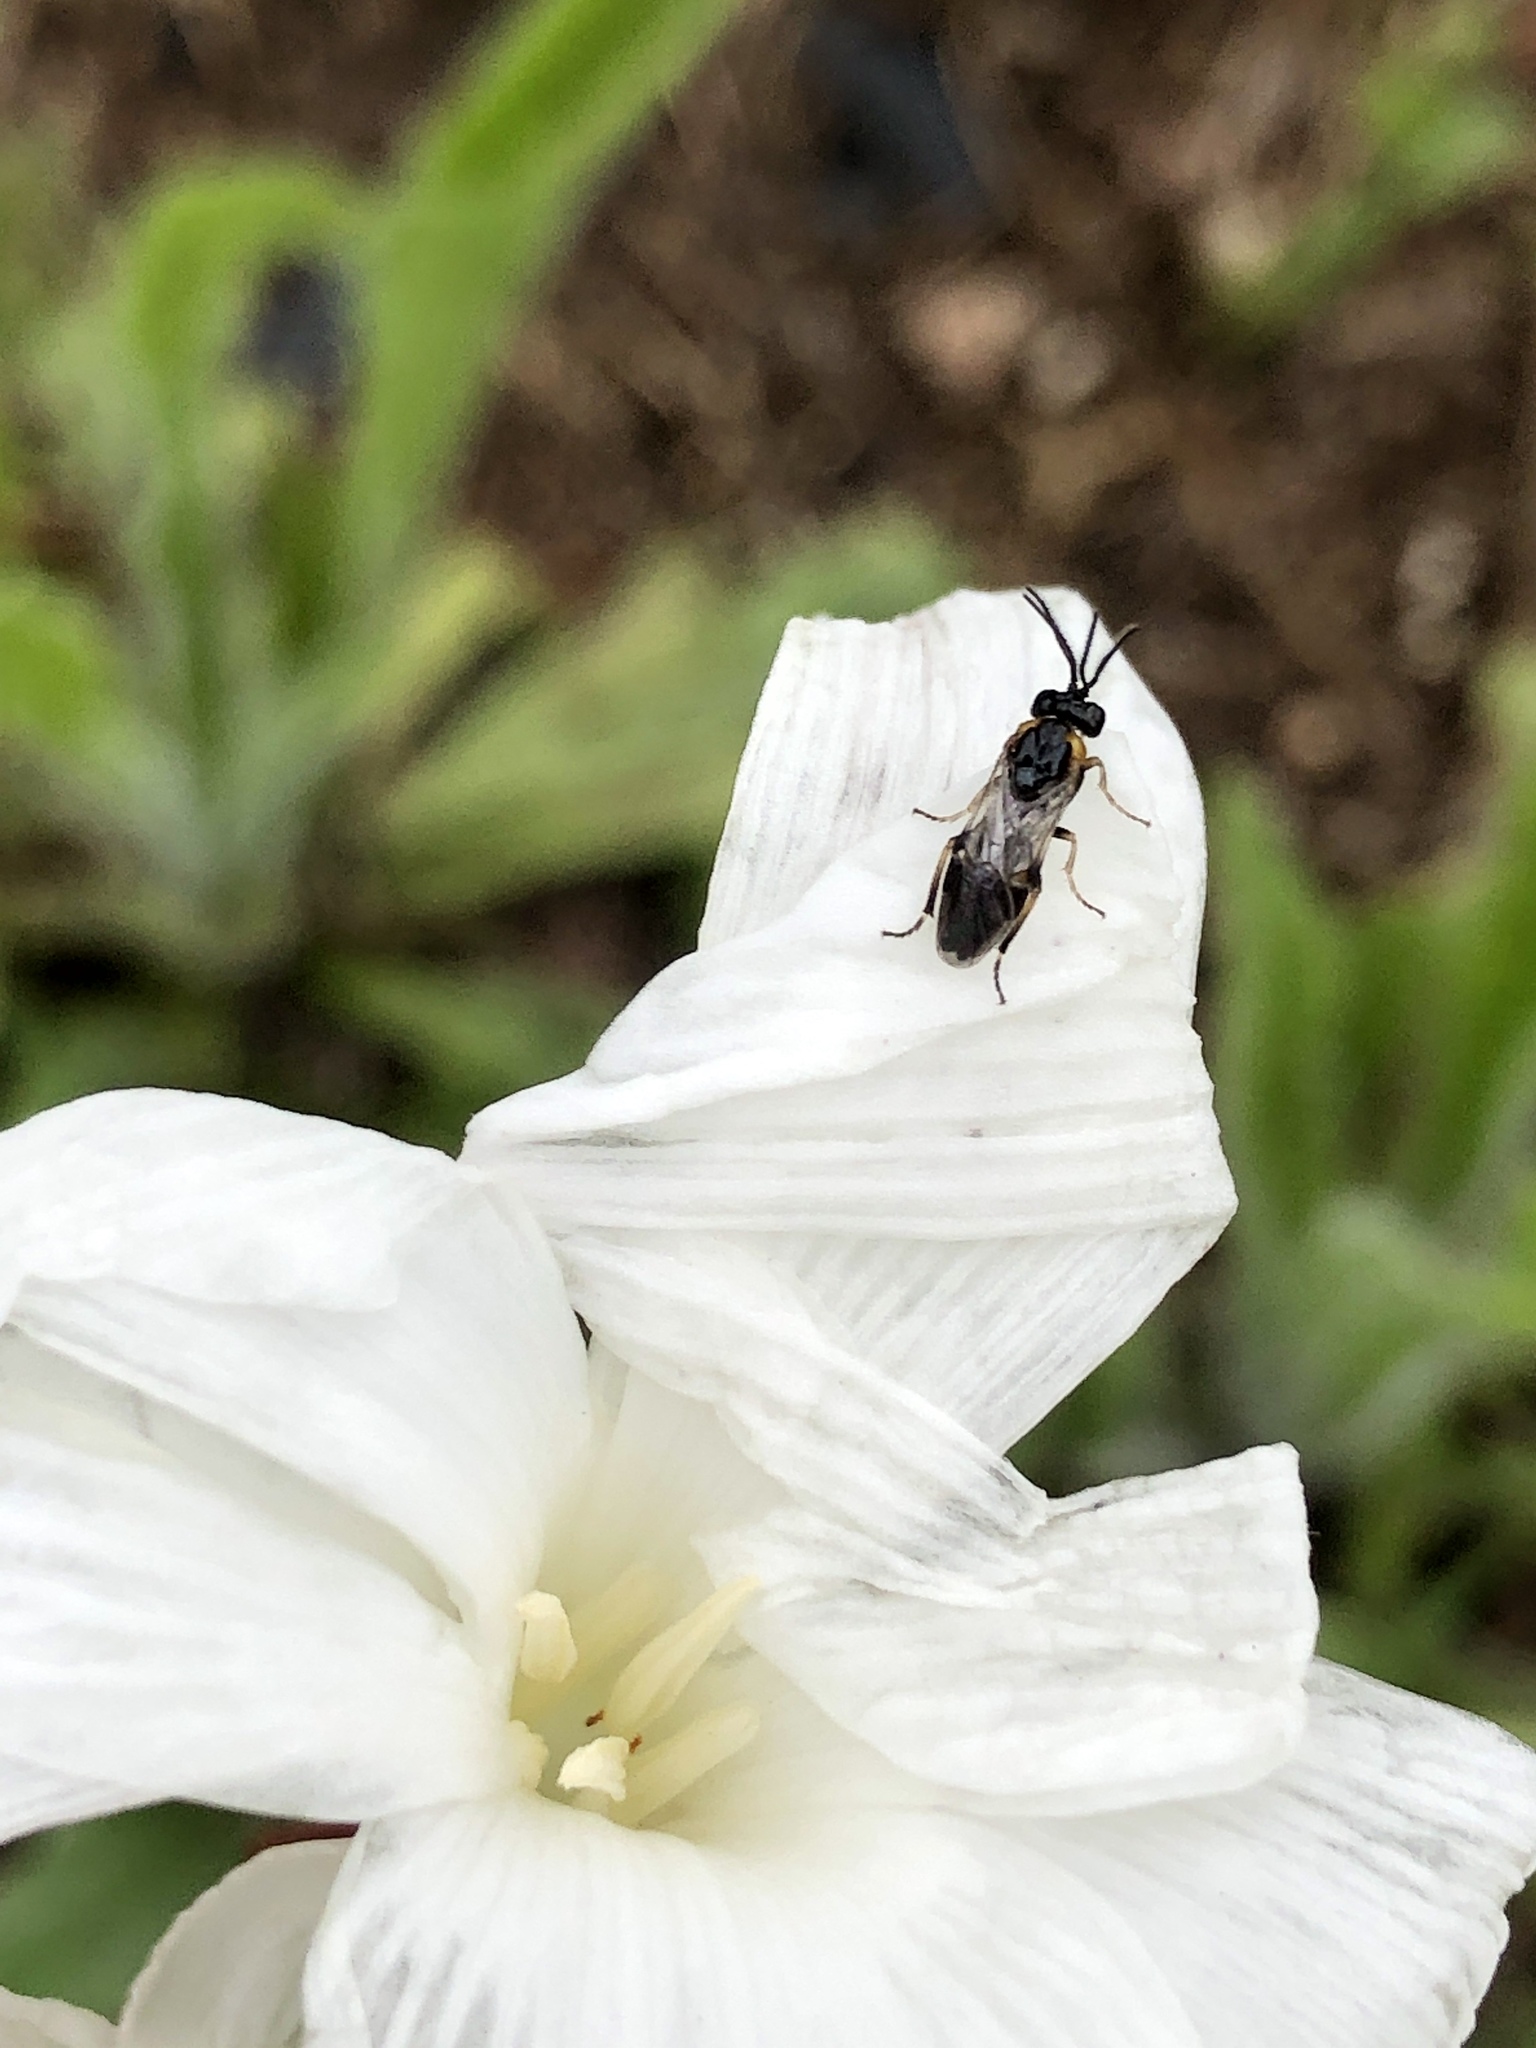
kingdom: Animalia
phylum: Arthropoda
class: Insecta
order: Hymenoptera
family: Argidae
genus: Schizocerella
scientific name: Schizocerella pilicornis
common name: Purslane sawfly
